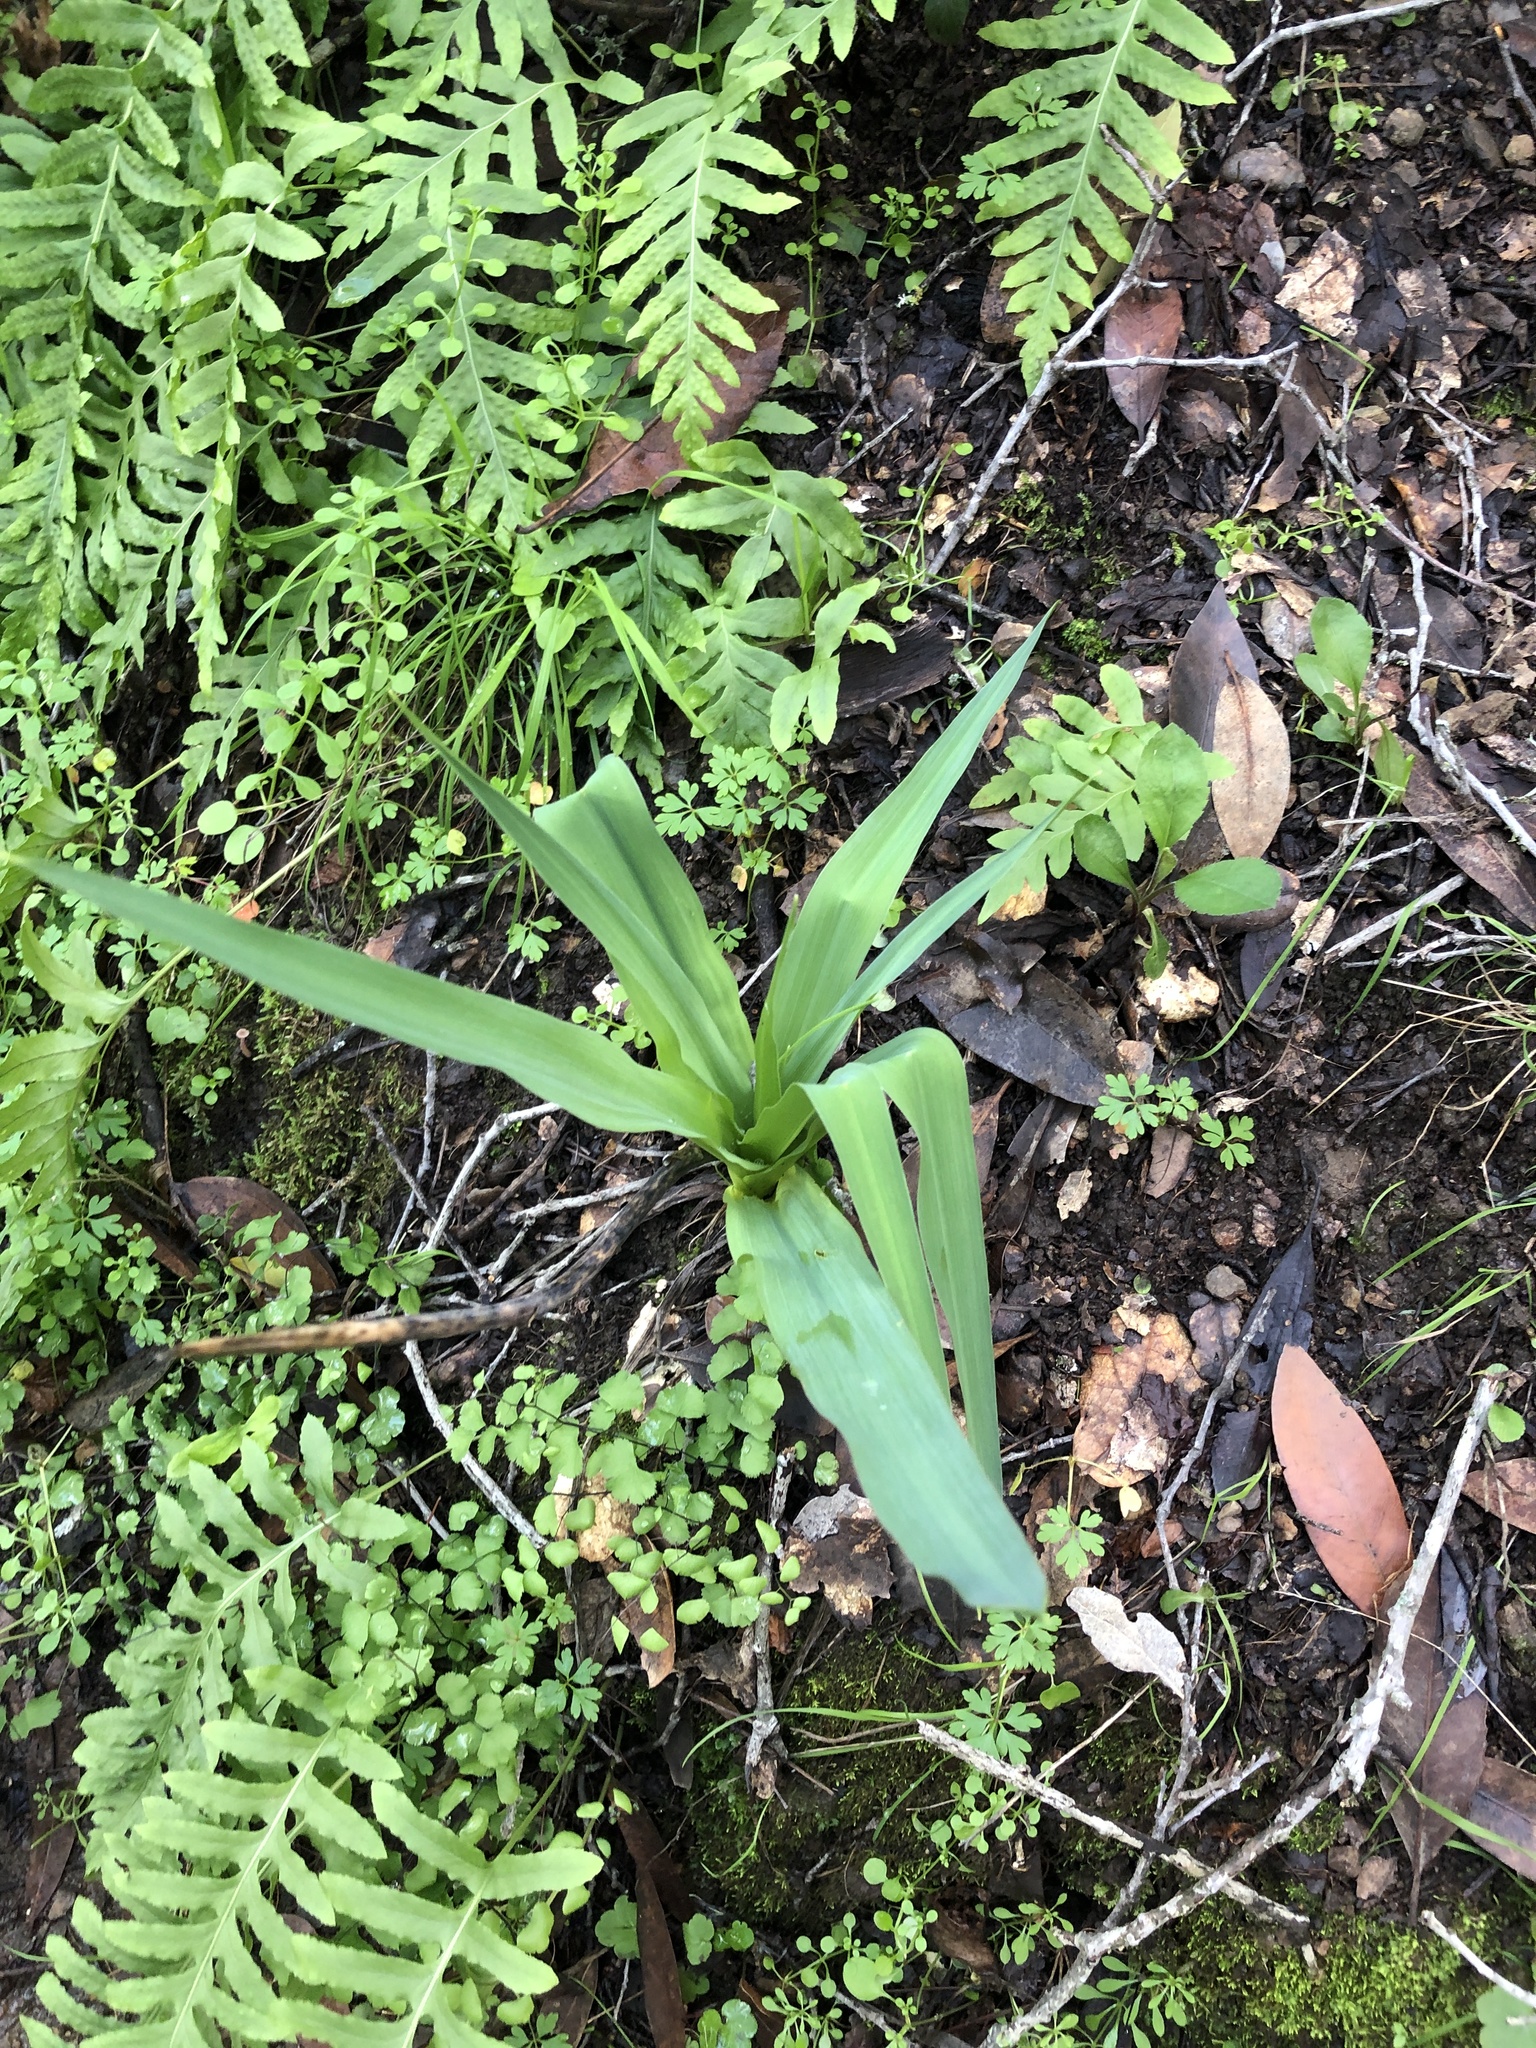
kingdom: Plantae
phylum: Tracheophyta
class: Liliopsida
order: Asparagales
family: Asparagaceae
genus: Chlorogalum
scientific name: Chlorogalum pomeridianum
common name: Amole
